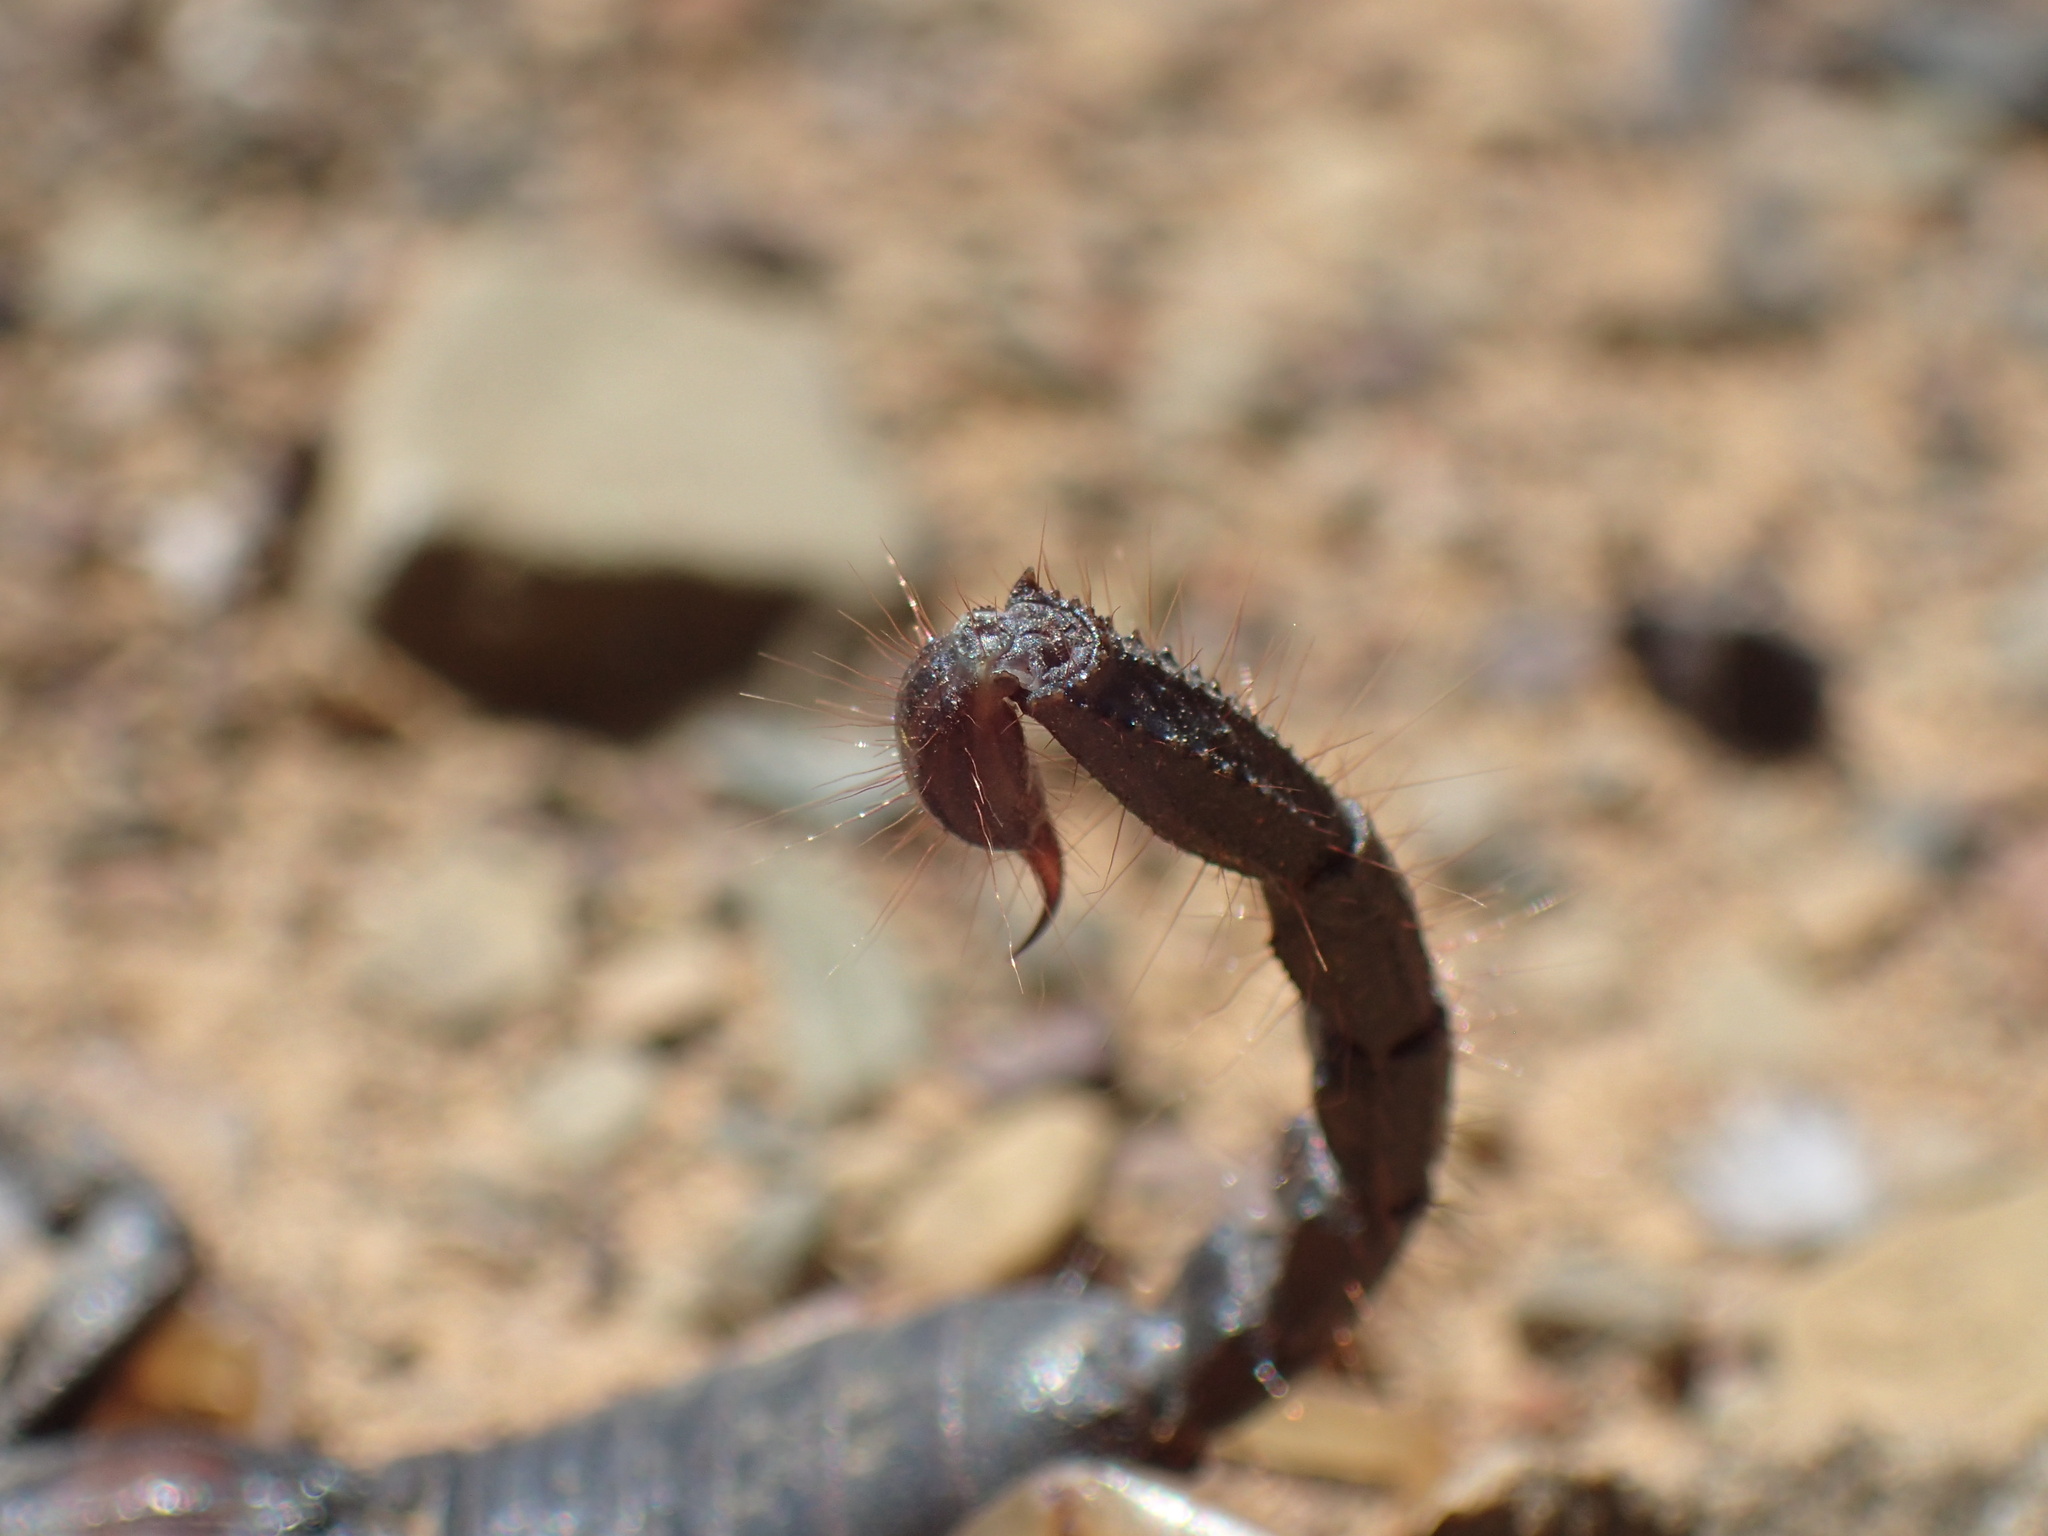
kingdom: Animalia
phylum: Arthropoda
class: Arachnida
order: Scorpiones
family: Scorpionidae
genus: Opistophthalmus
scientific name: Opistophthalmus pallipes
